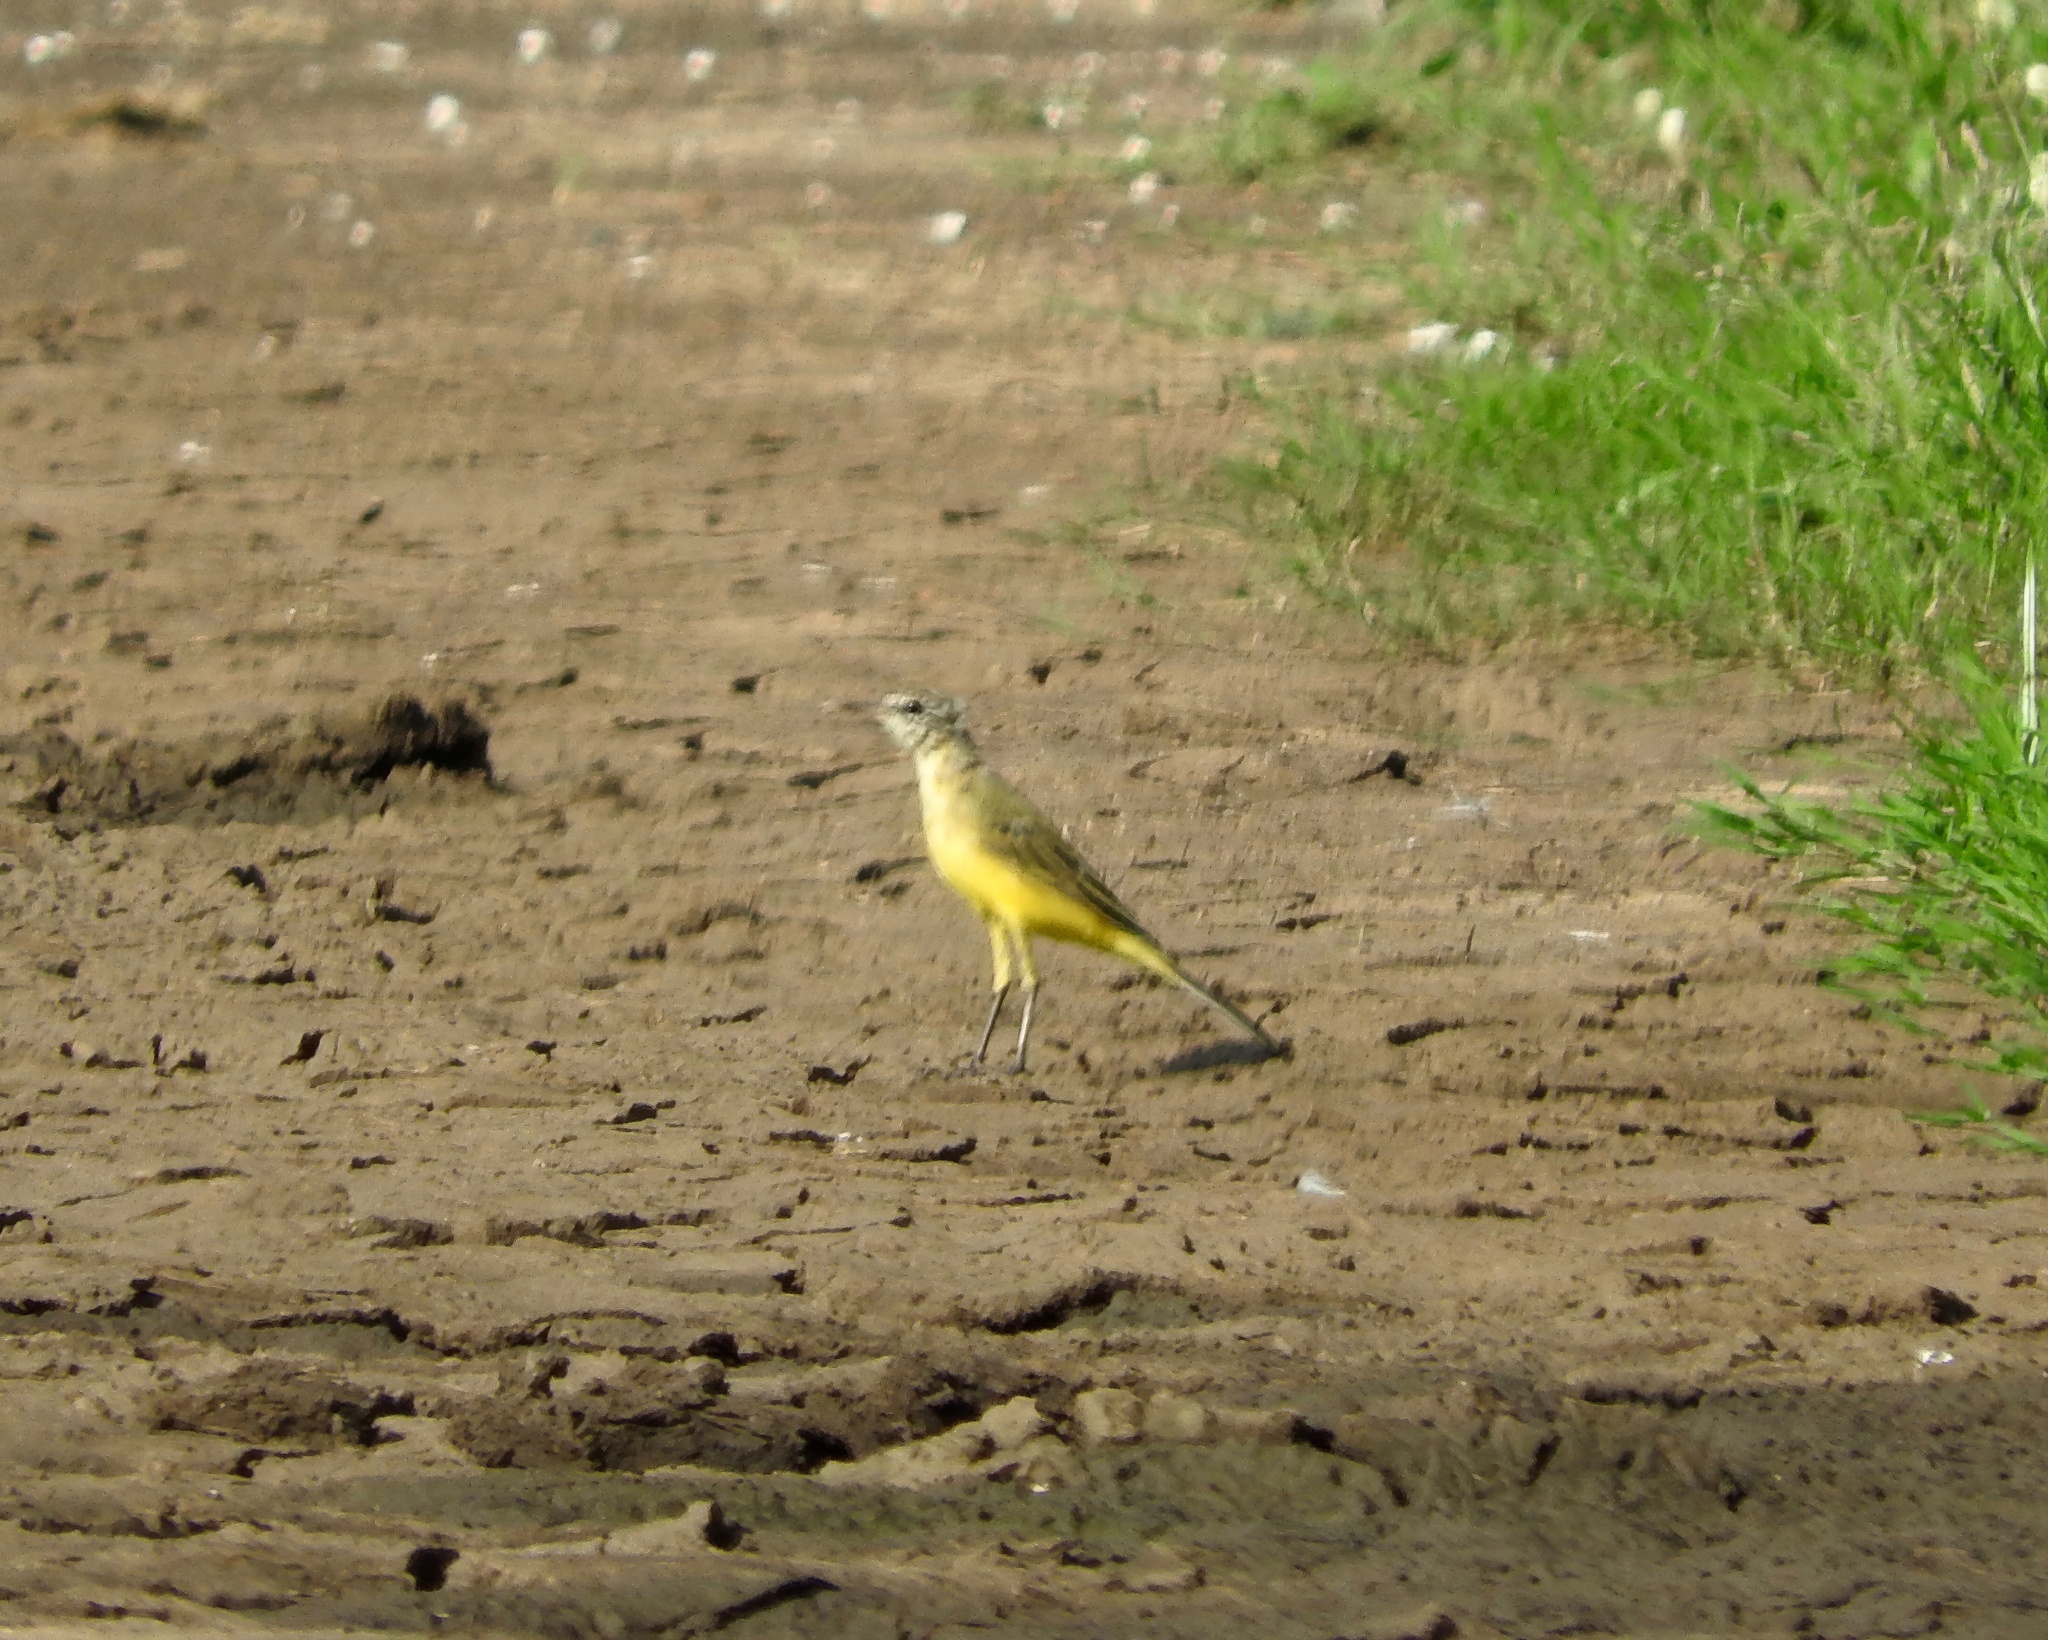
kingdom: Animalia
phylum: Chordata
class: Aves
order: Passeriformes
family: Motacillidae
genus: Motacilla
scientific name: Motacilla flava
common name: Western yellow wagtail
